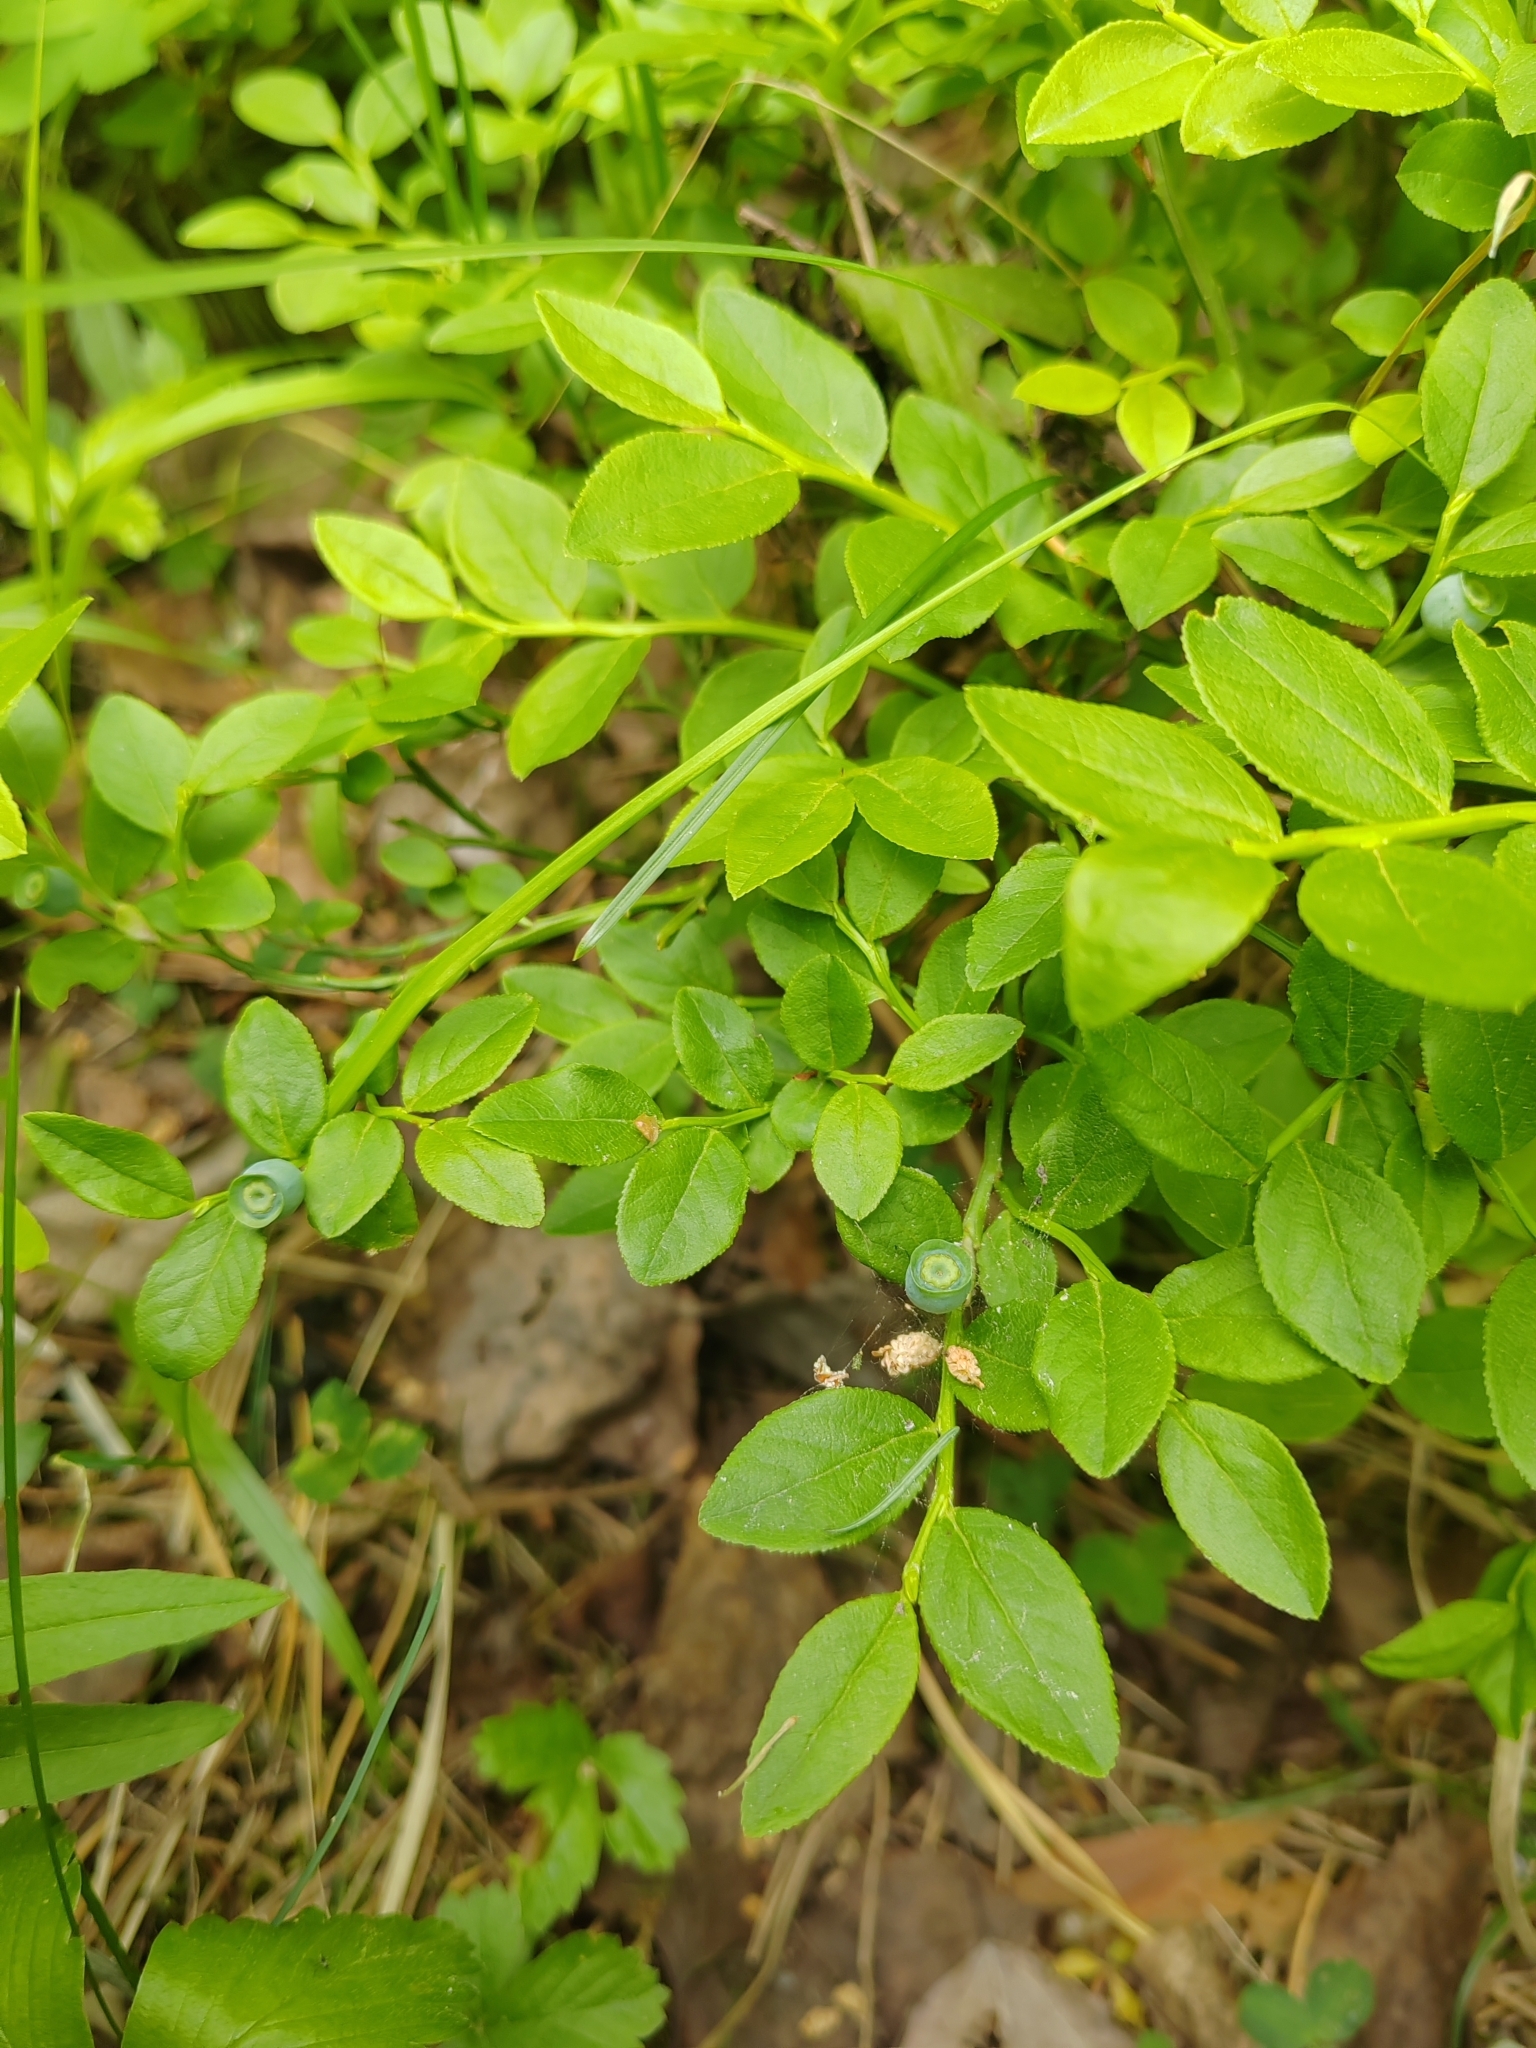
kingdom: Plantae
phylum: Tracheophyta
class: Magnoliopsida
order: Ericales
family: Ericaceae
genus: Vaccinium
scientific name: Vaccinium myrtillus
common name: Bilberry
